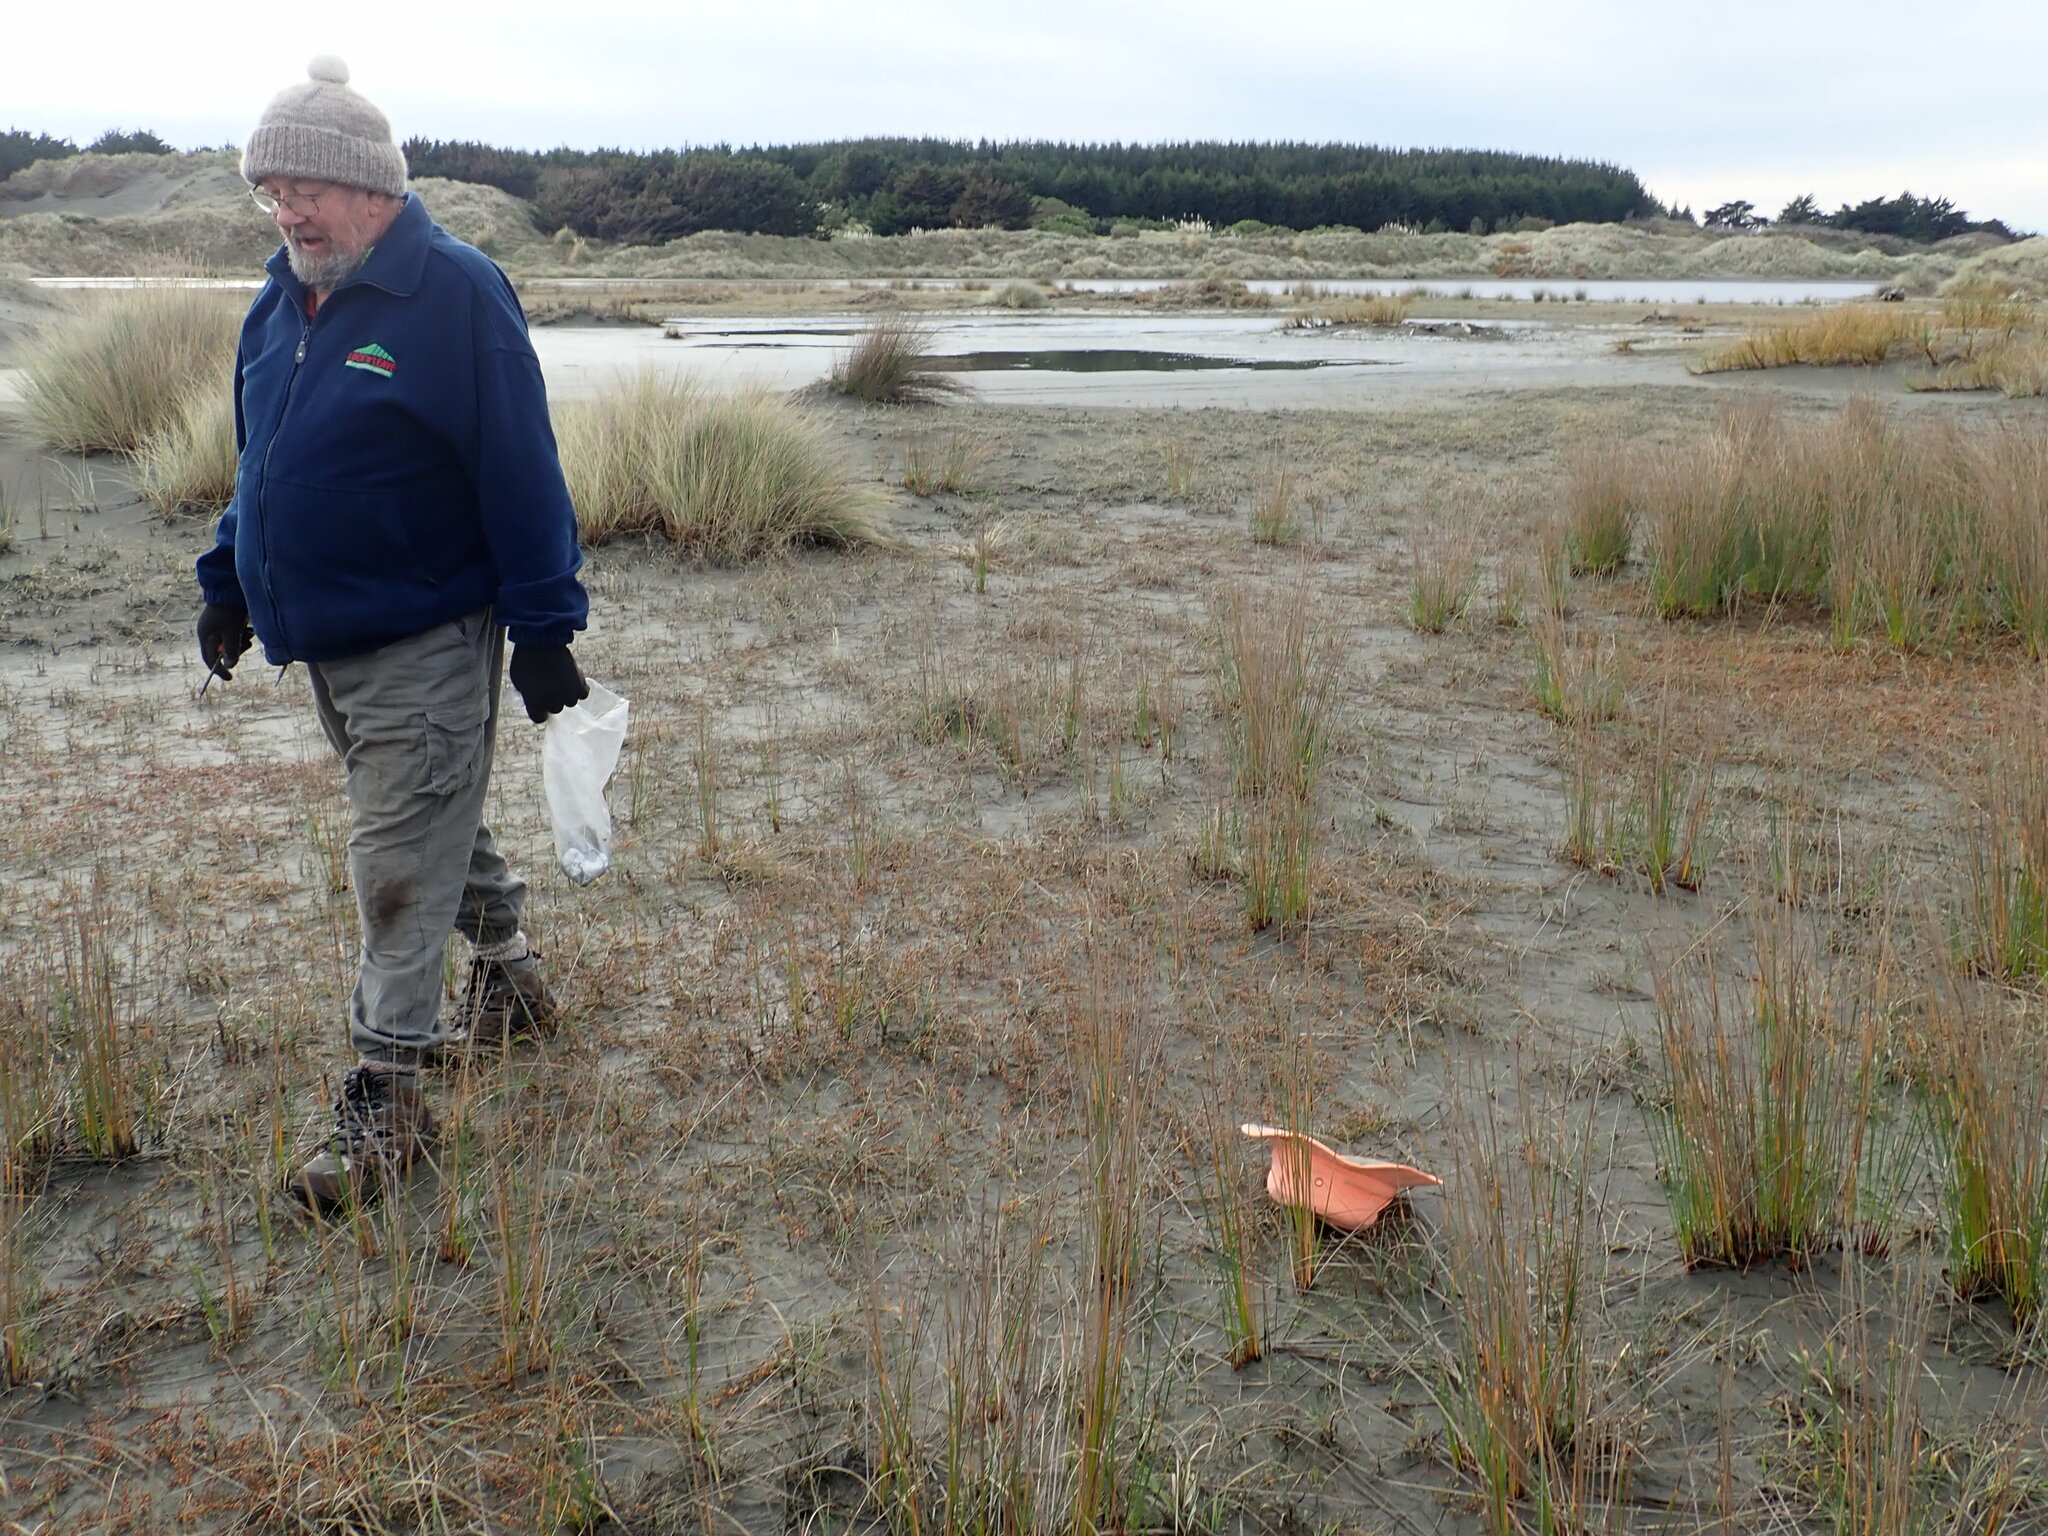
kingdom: Plantae
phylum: Tracheophyta
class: Magnoliopsida
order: Apiales
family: Apiaceae
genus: Lilaeopsis
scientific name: Lilaeopsis novae-zelandiae
